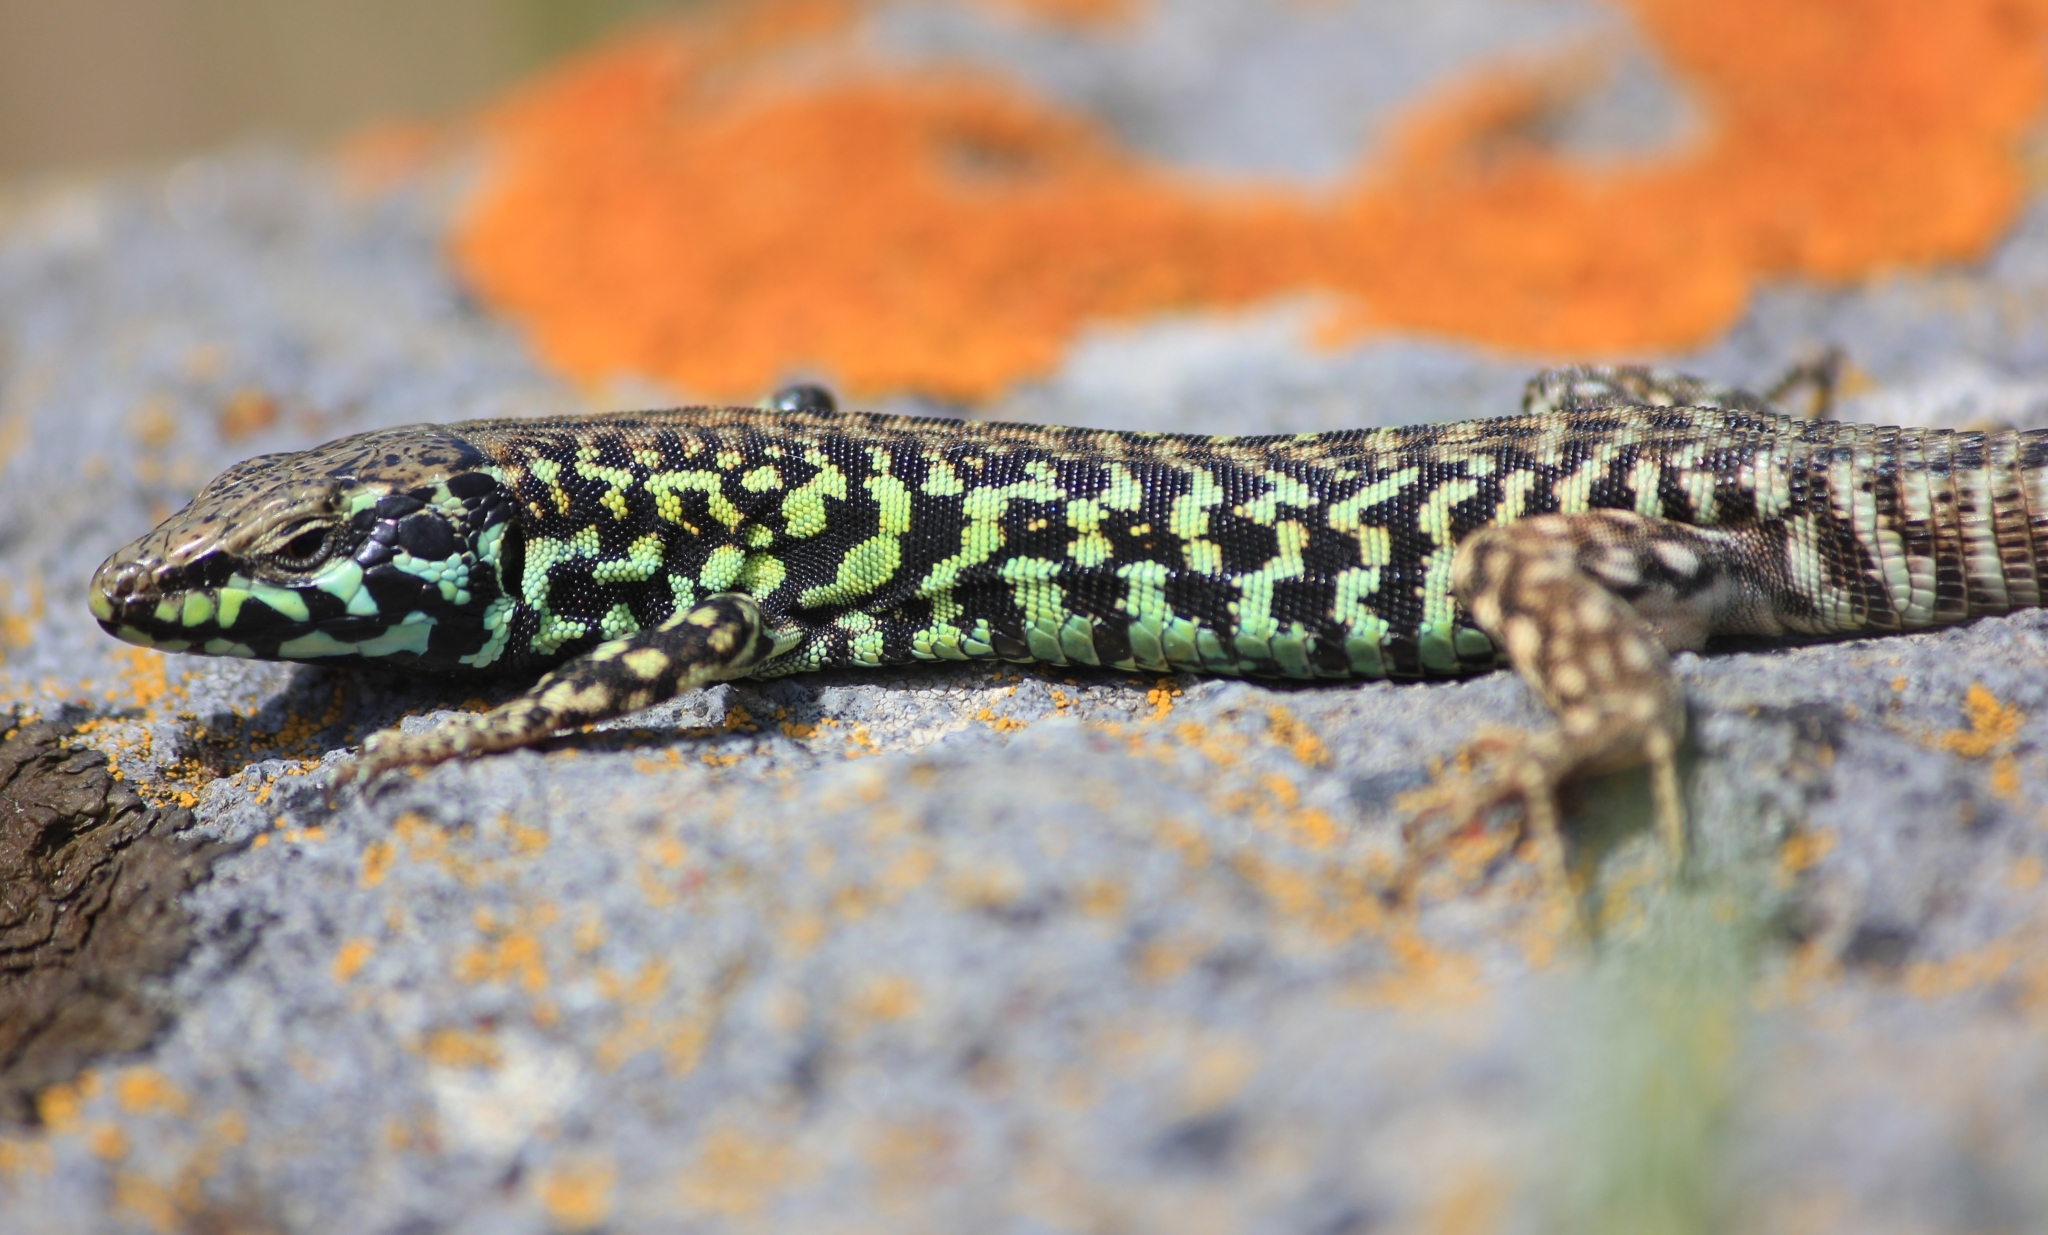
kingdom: Animalia
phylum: Chordata
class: Squamata
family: Lacertidae
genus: Podarcis
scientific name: Podarcis milensis
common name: Milos wall lizard
